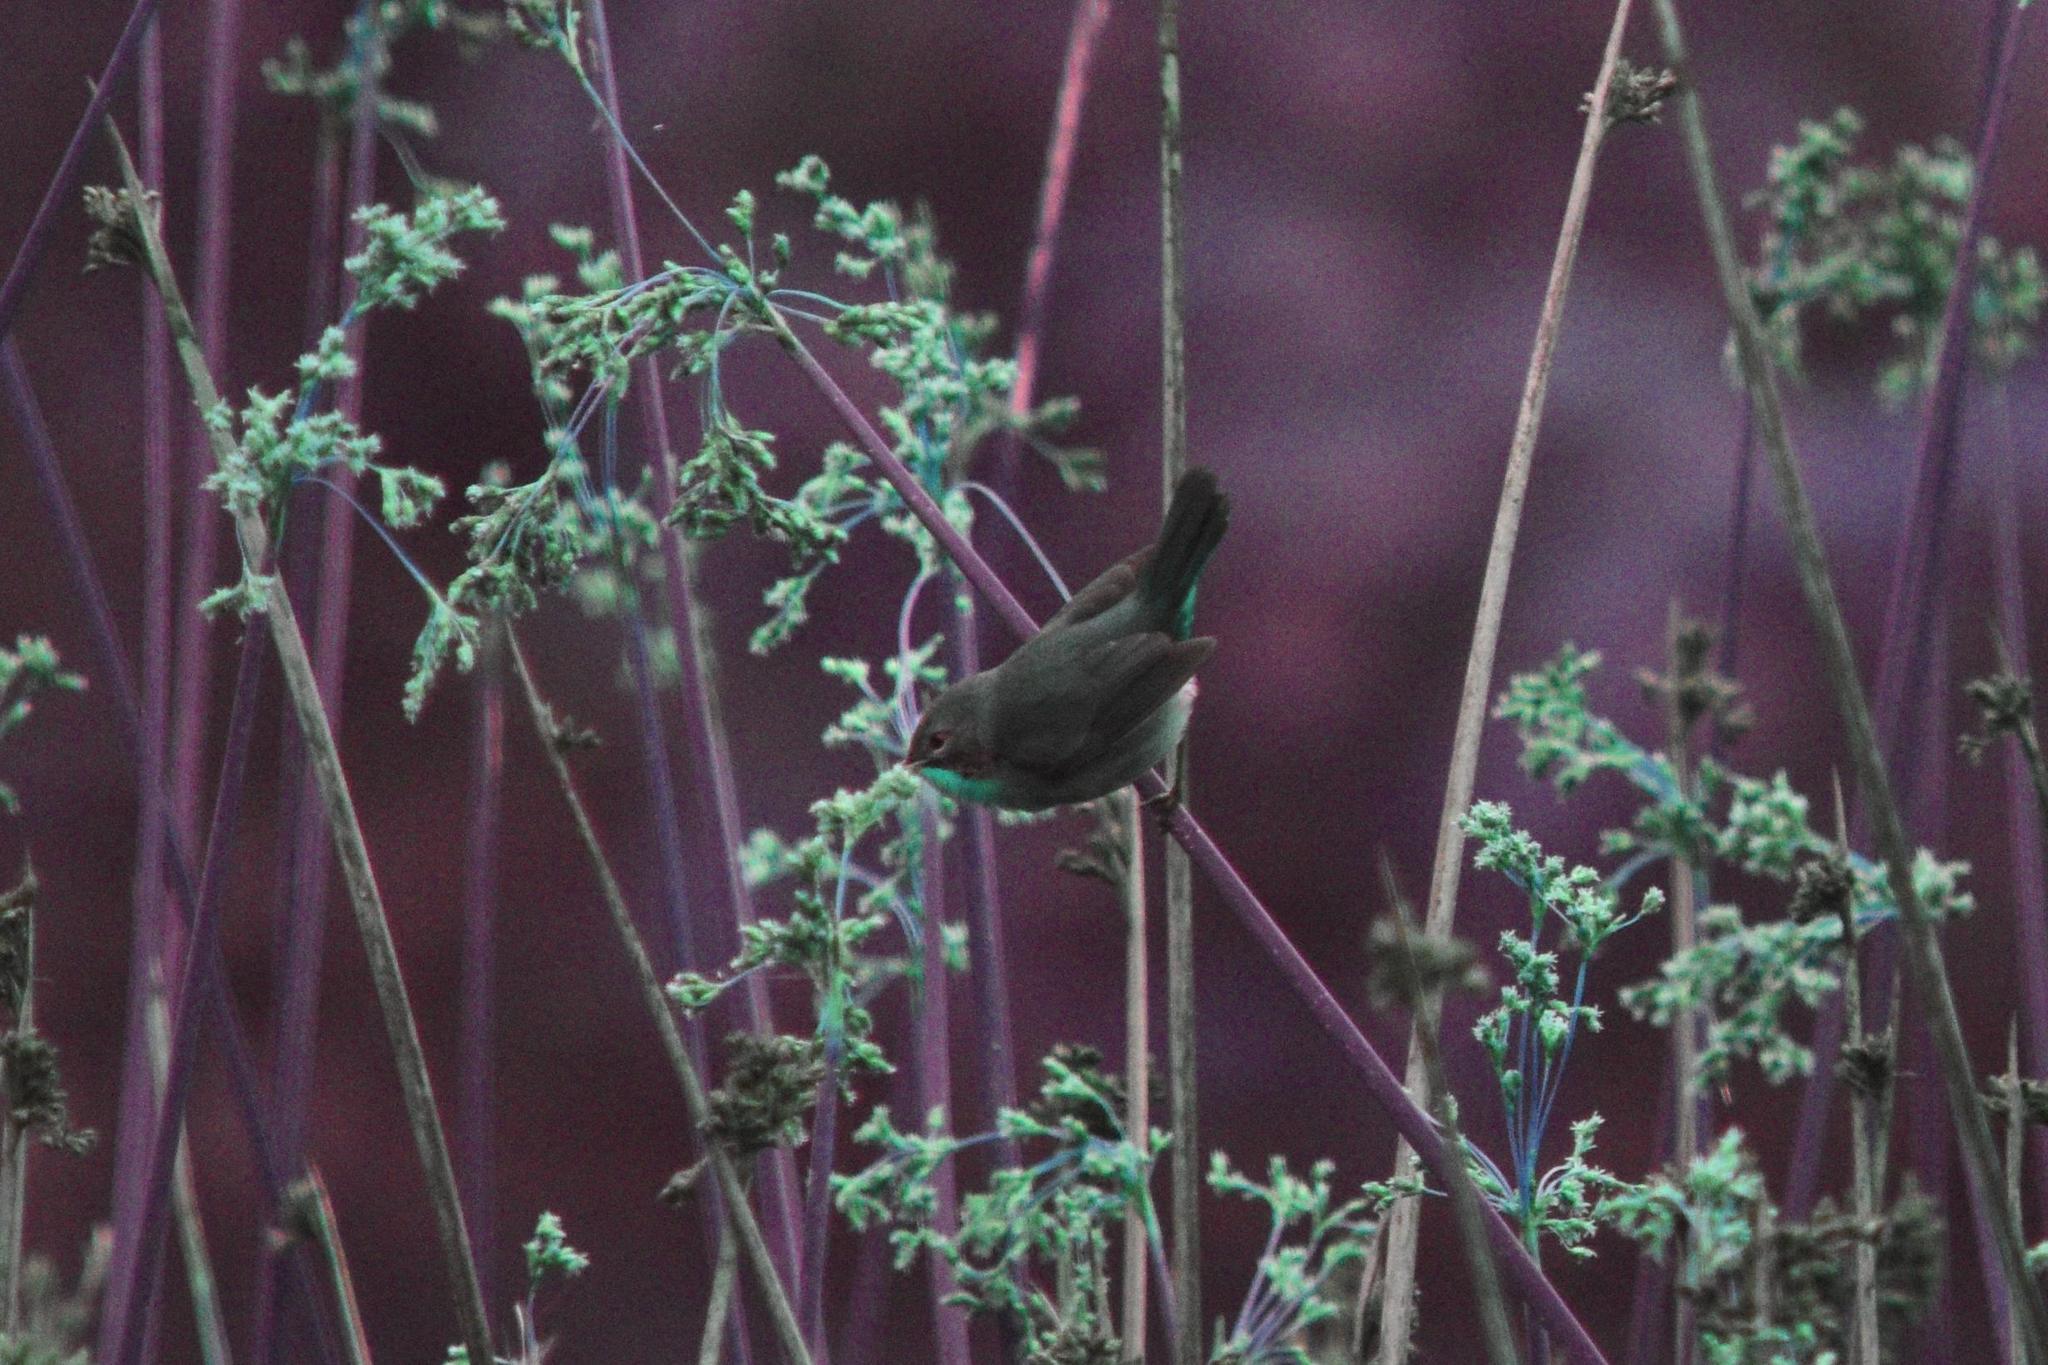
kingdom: Animalia
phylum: Chordata
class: Aves
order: Passeriformes
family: Parulidae
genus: Geothlypis
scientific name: Geothlypis trichas
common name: Common yellowthroat
